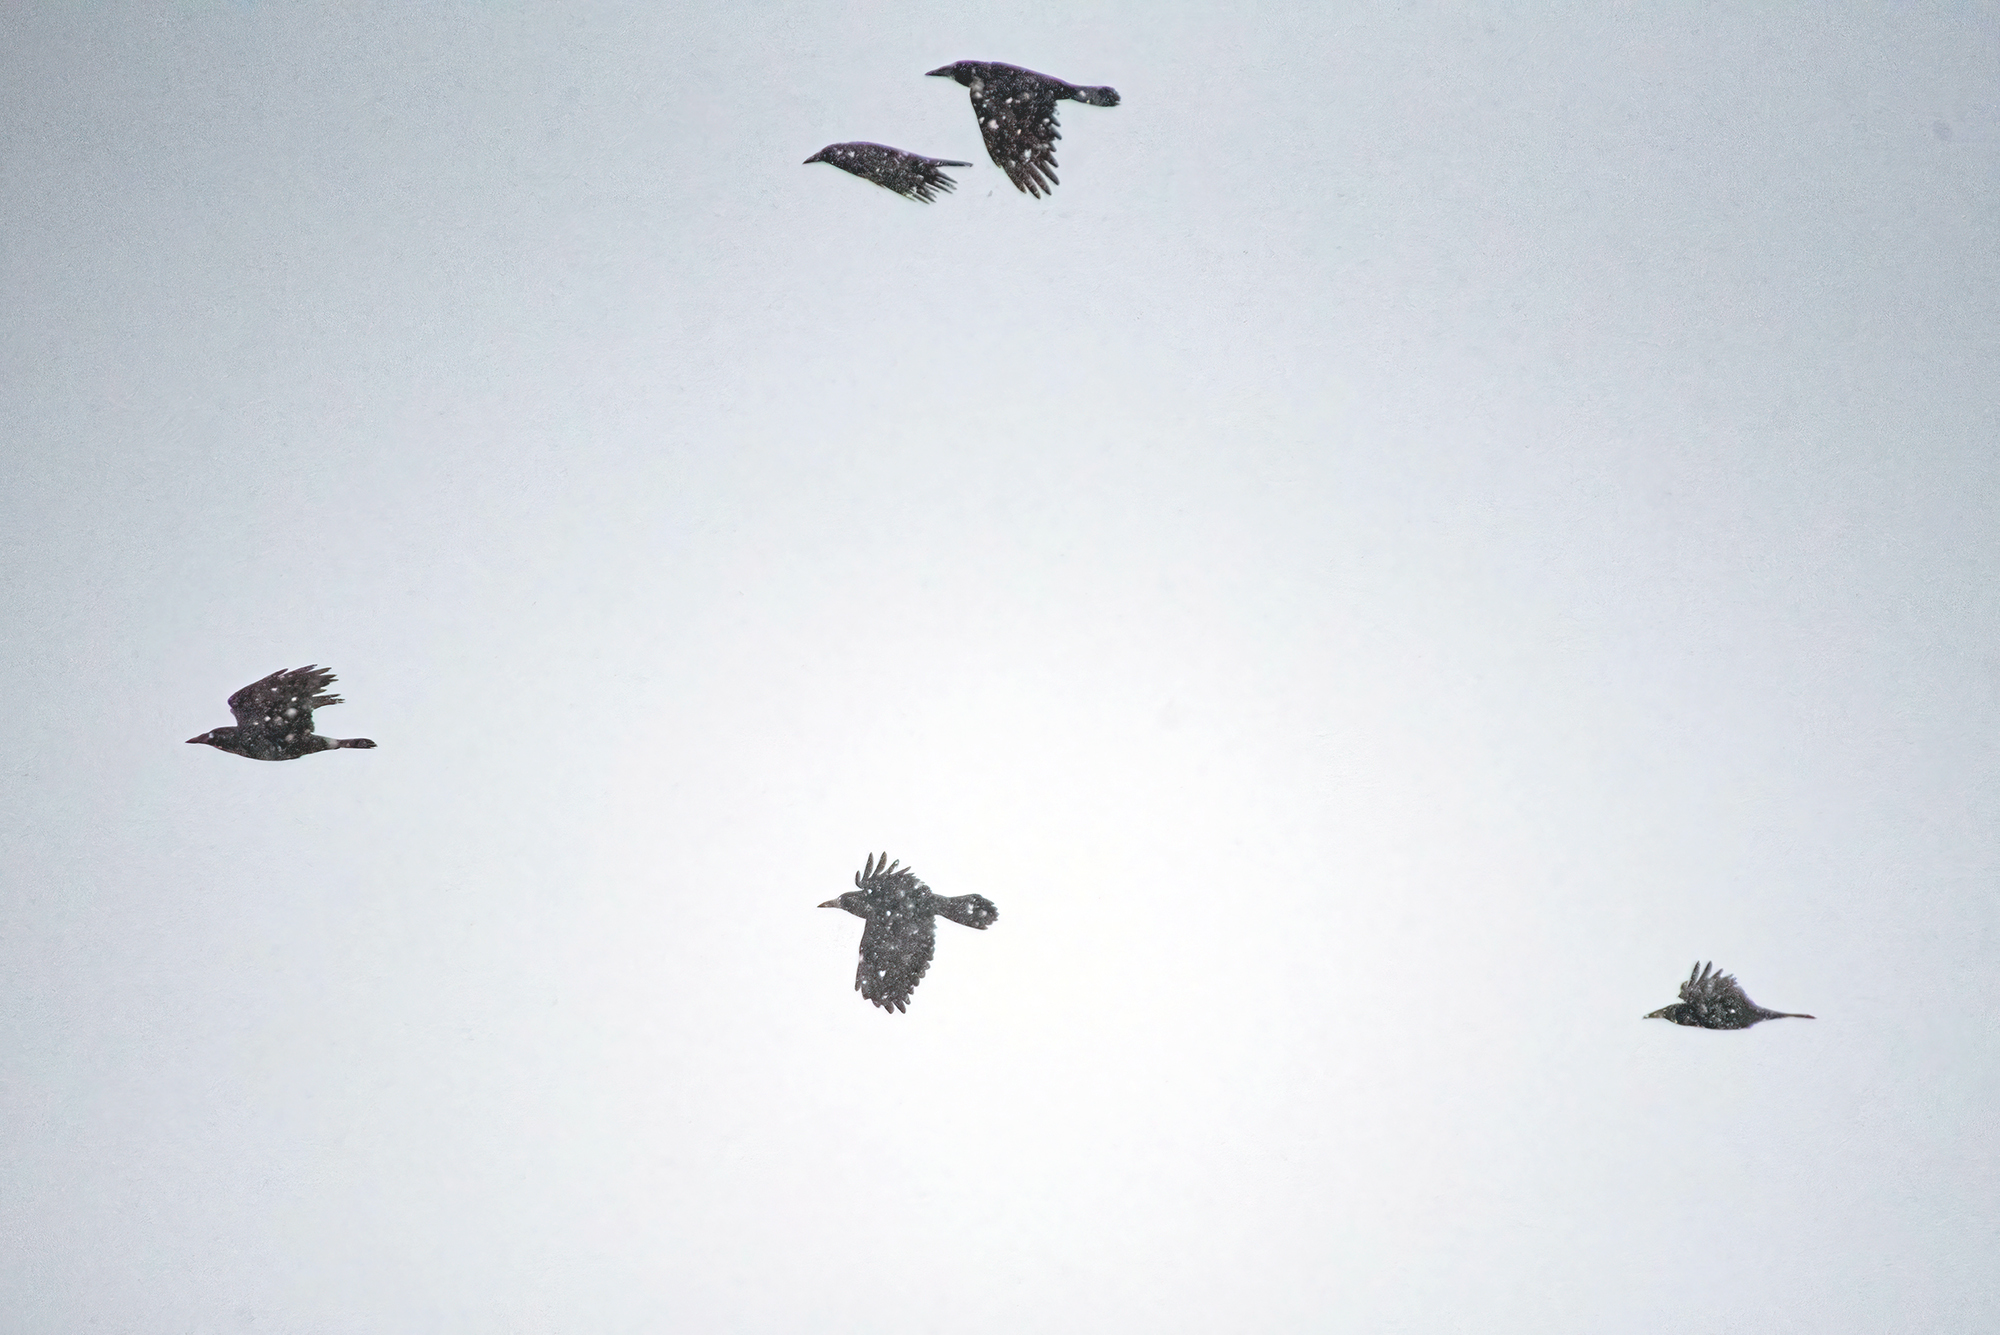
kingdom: Animalia
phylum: Chordata
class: Aves
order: Passeriformes
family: Corvidae
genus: Corvus
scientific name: Corvus frugilegus
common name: Rook
